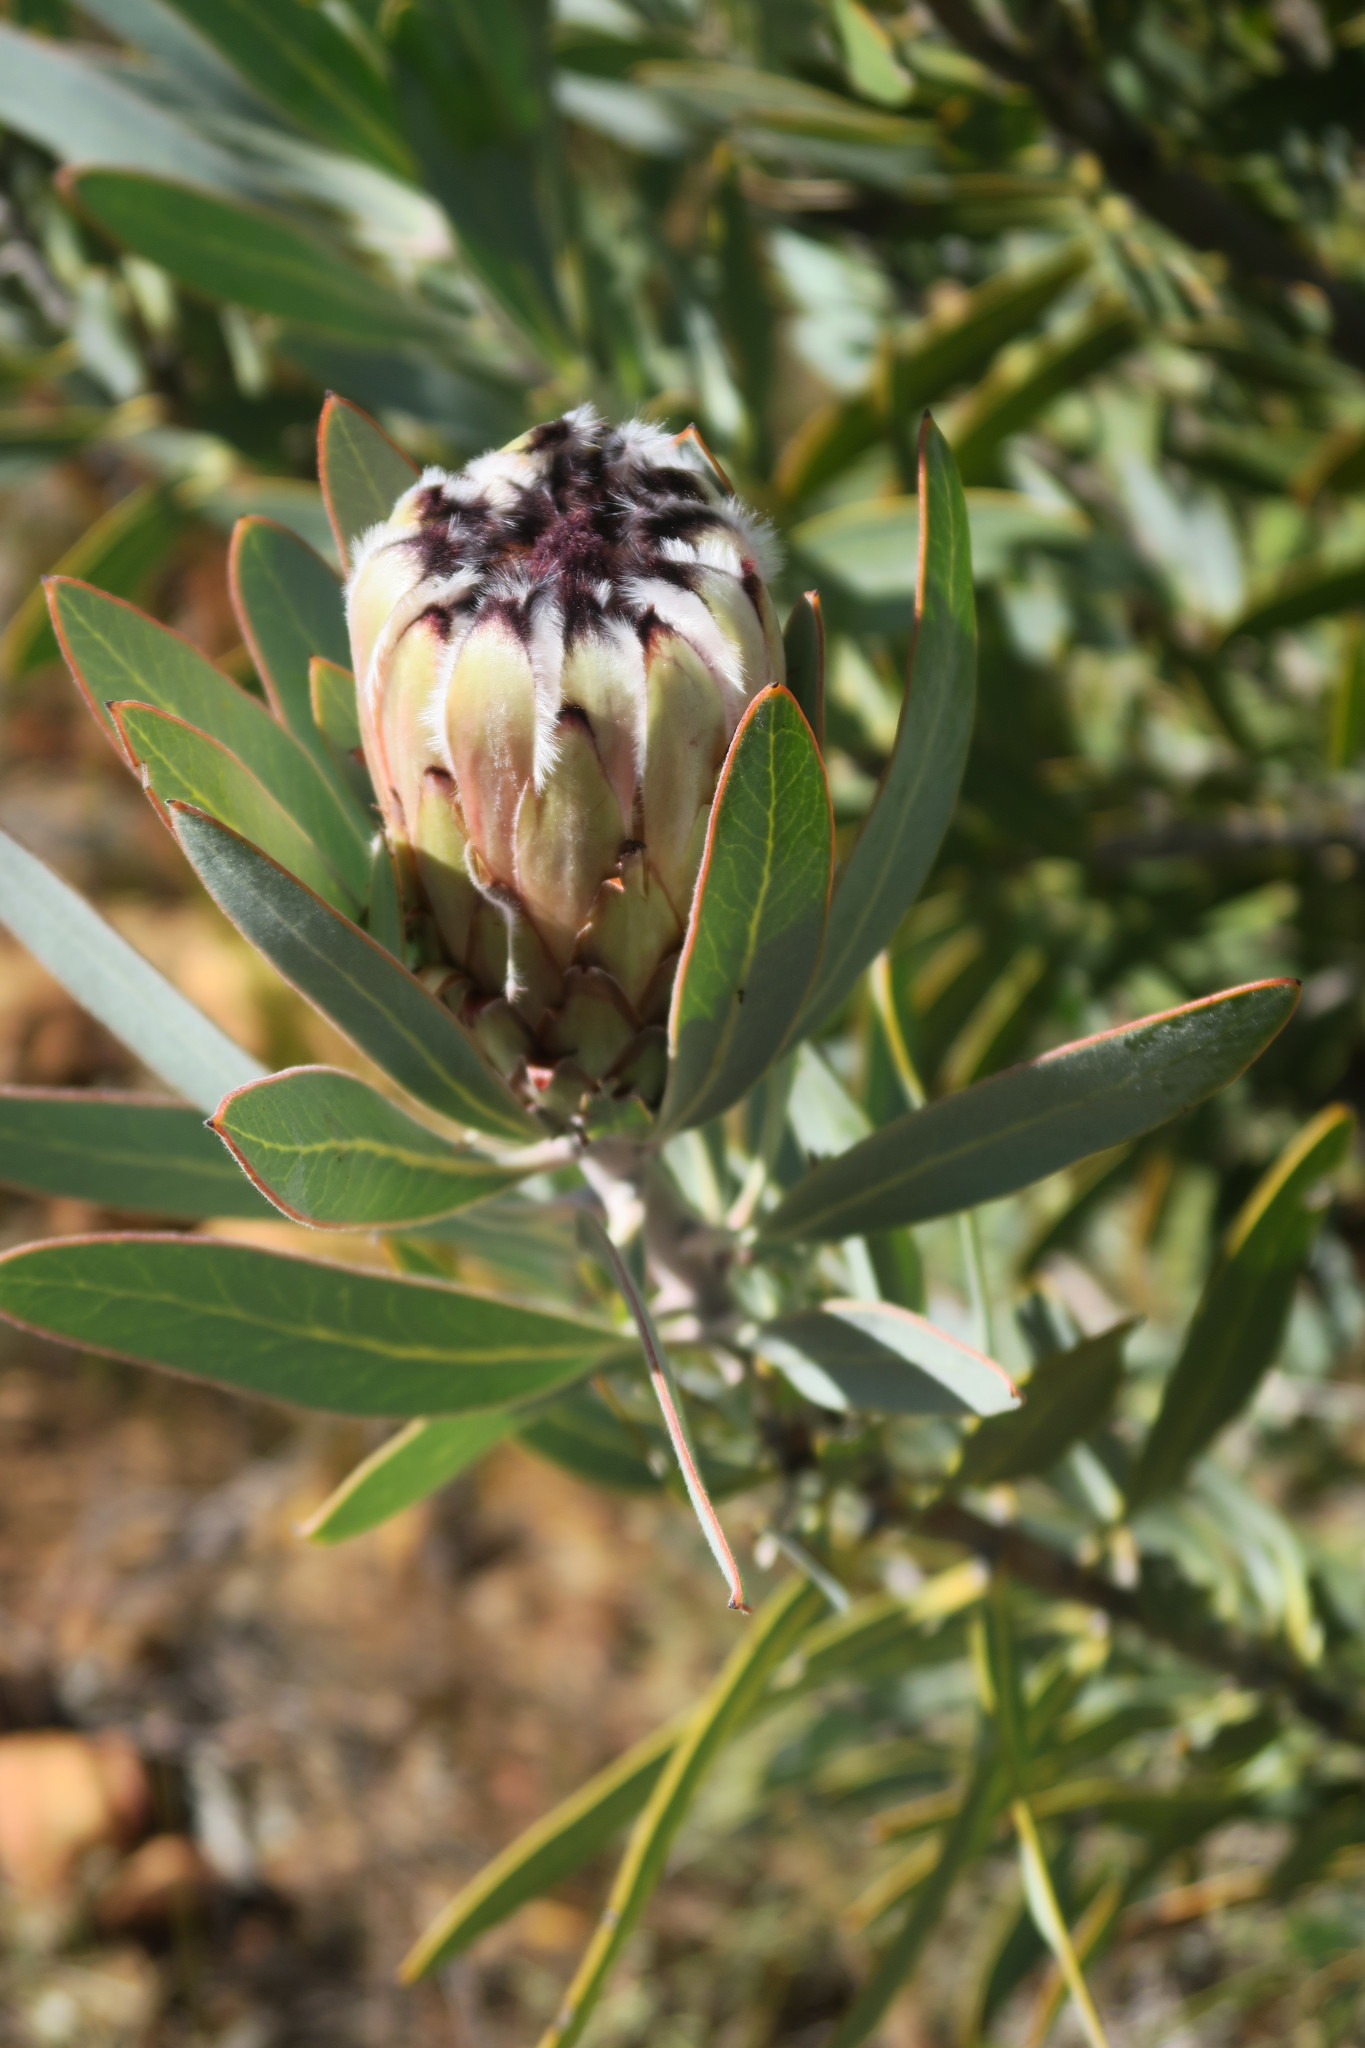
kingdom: Plantae
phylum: Tracheophyta
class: Magnoliopsida
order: Proteales
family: Proteaceae
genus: Protea
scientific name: Protea laurifolia
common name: Grey-leaf sugarbsh
